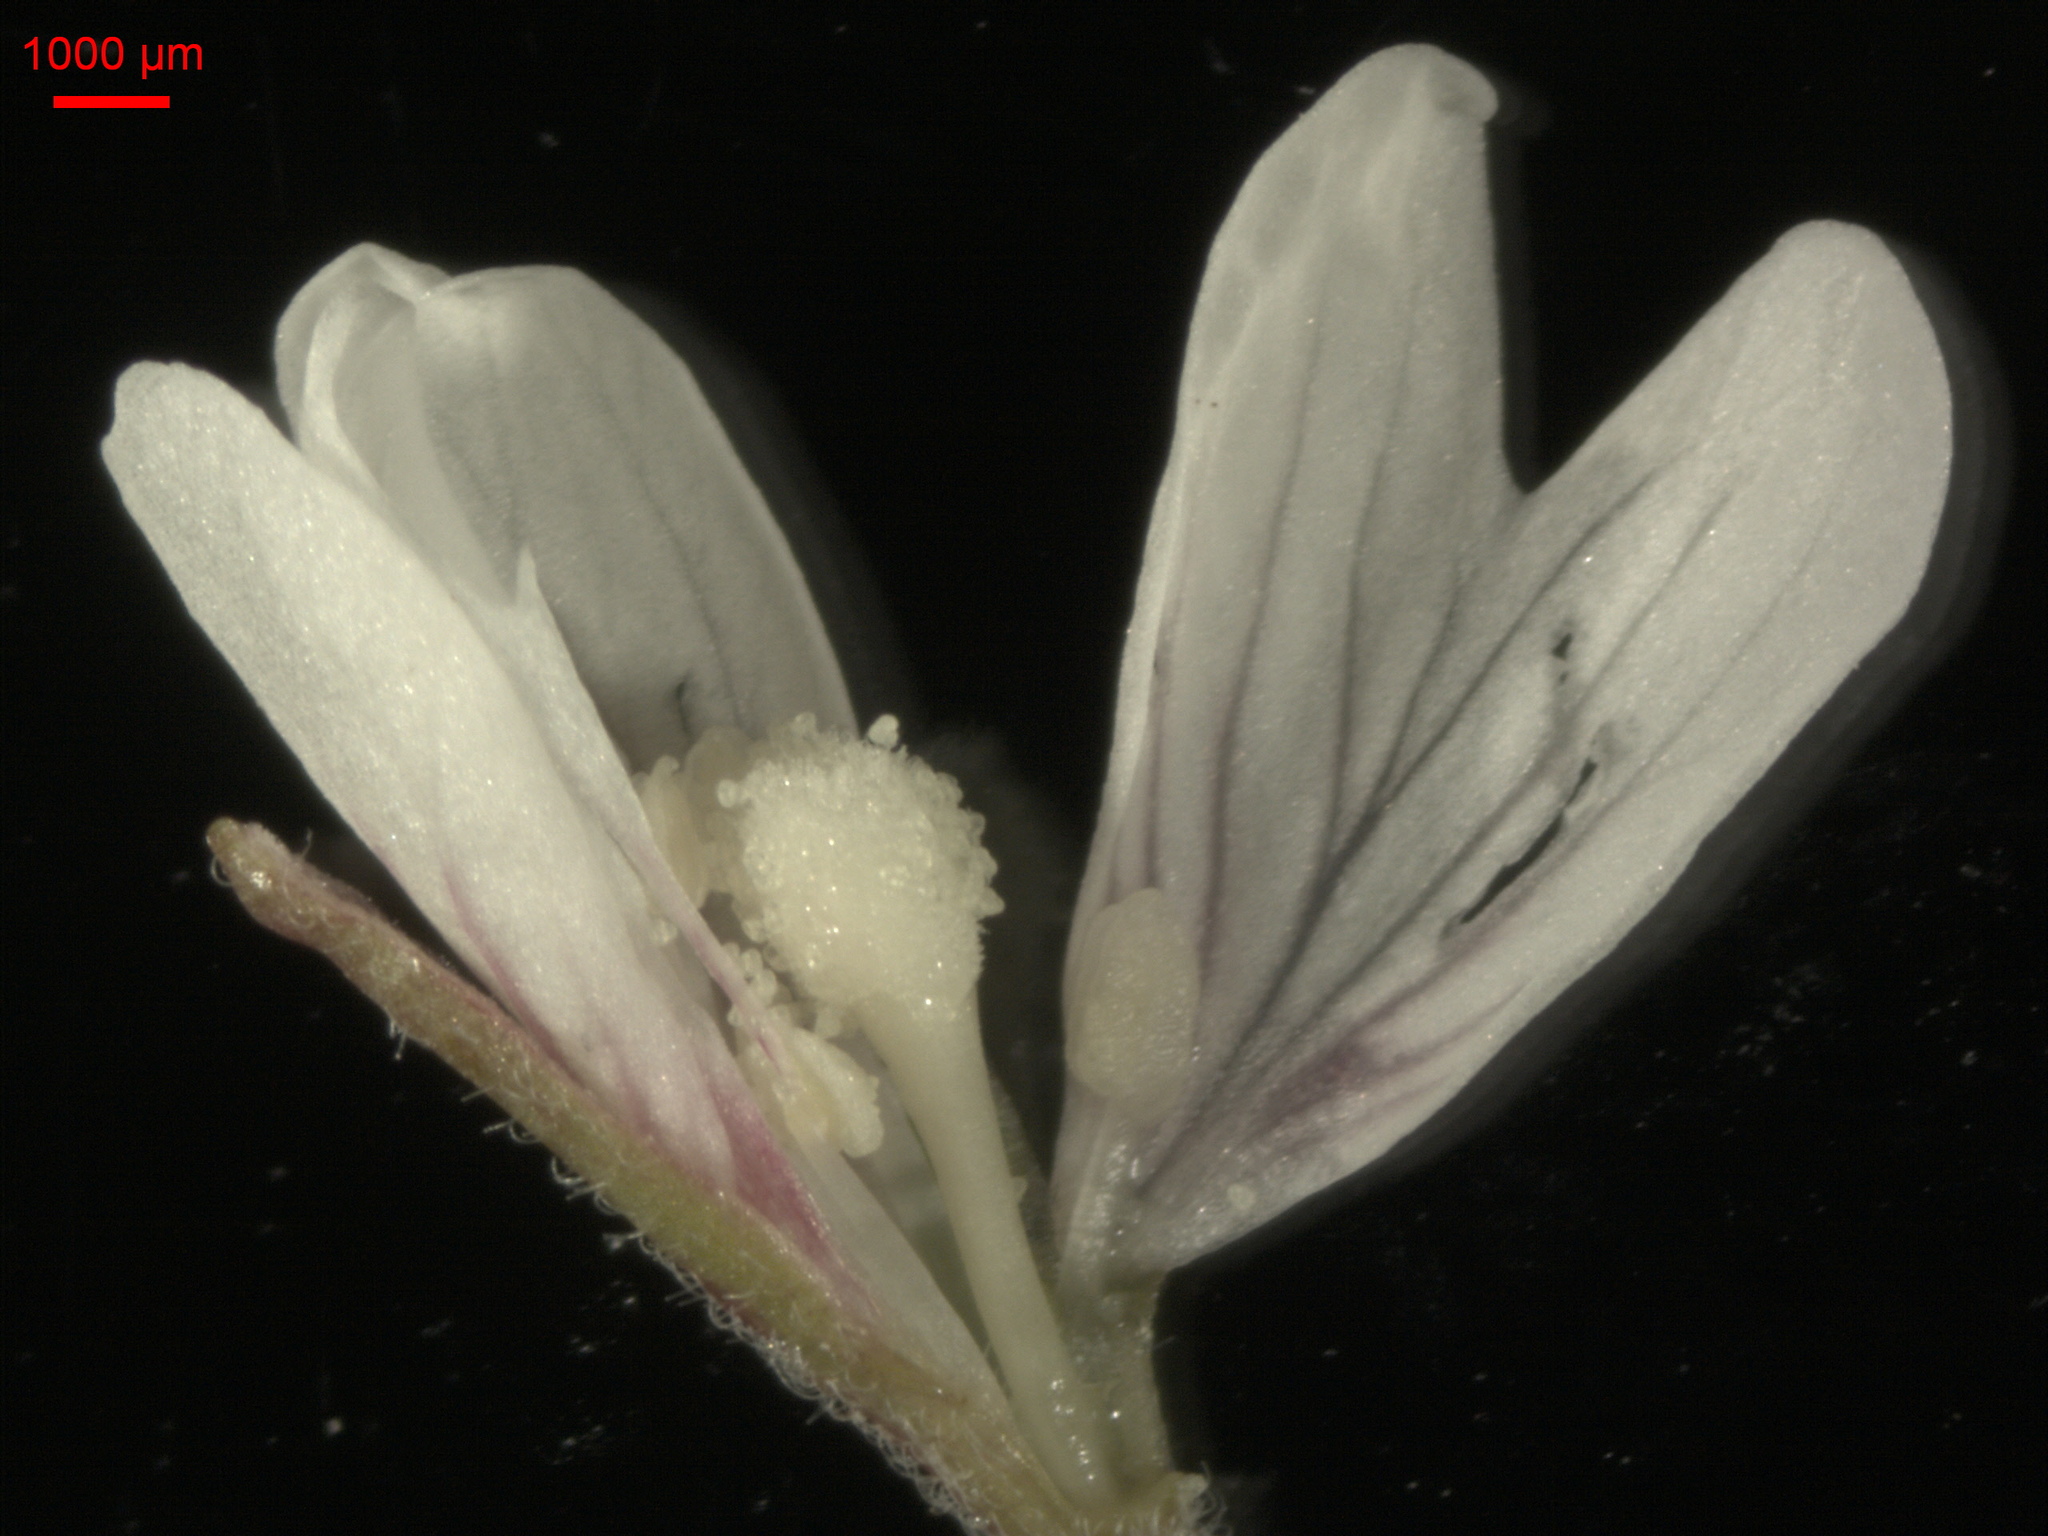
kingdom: Plantae
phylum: Tracheophyta
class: Magnoliopsida
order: Myrtales
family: Onagraceae
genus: Epilobium
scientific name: Epilobium palustre
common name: Marsh willowherb
